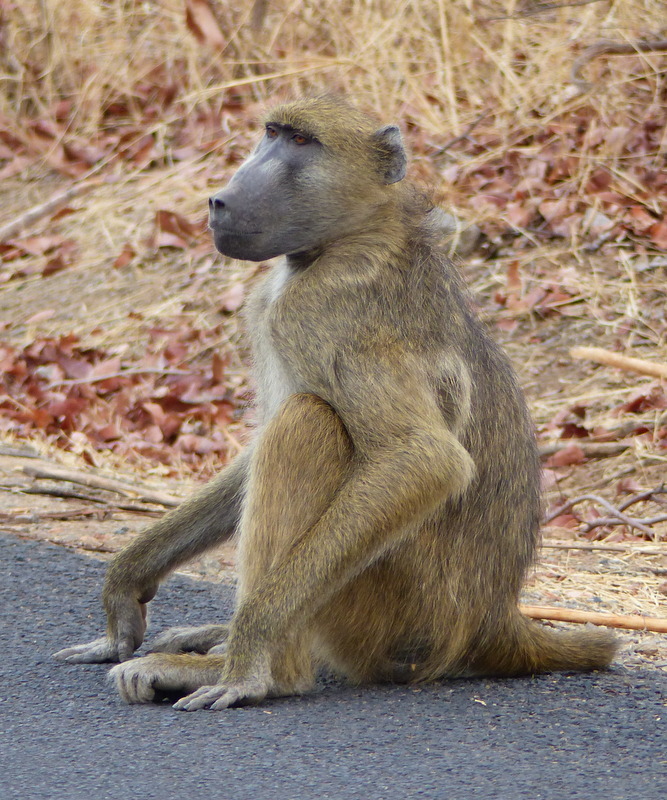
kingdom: Animalia
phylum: Chordata
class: Mammalia
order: Primates
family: Cercopithecidae
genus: Papio
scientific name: Papio ursinus
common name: Chacma baboon
